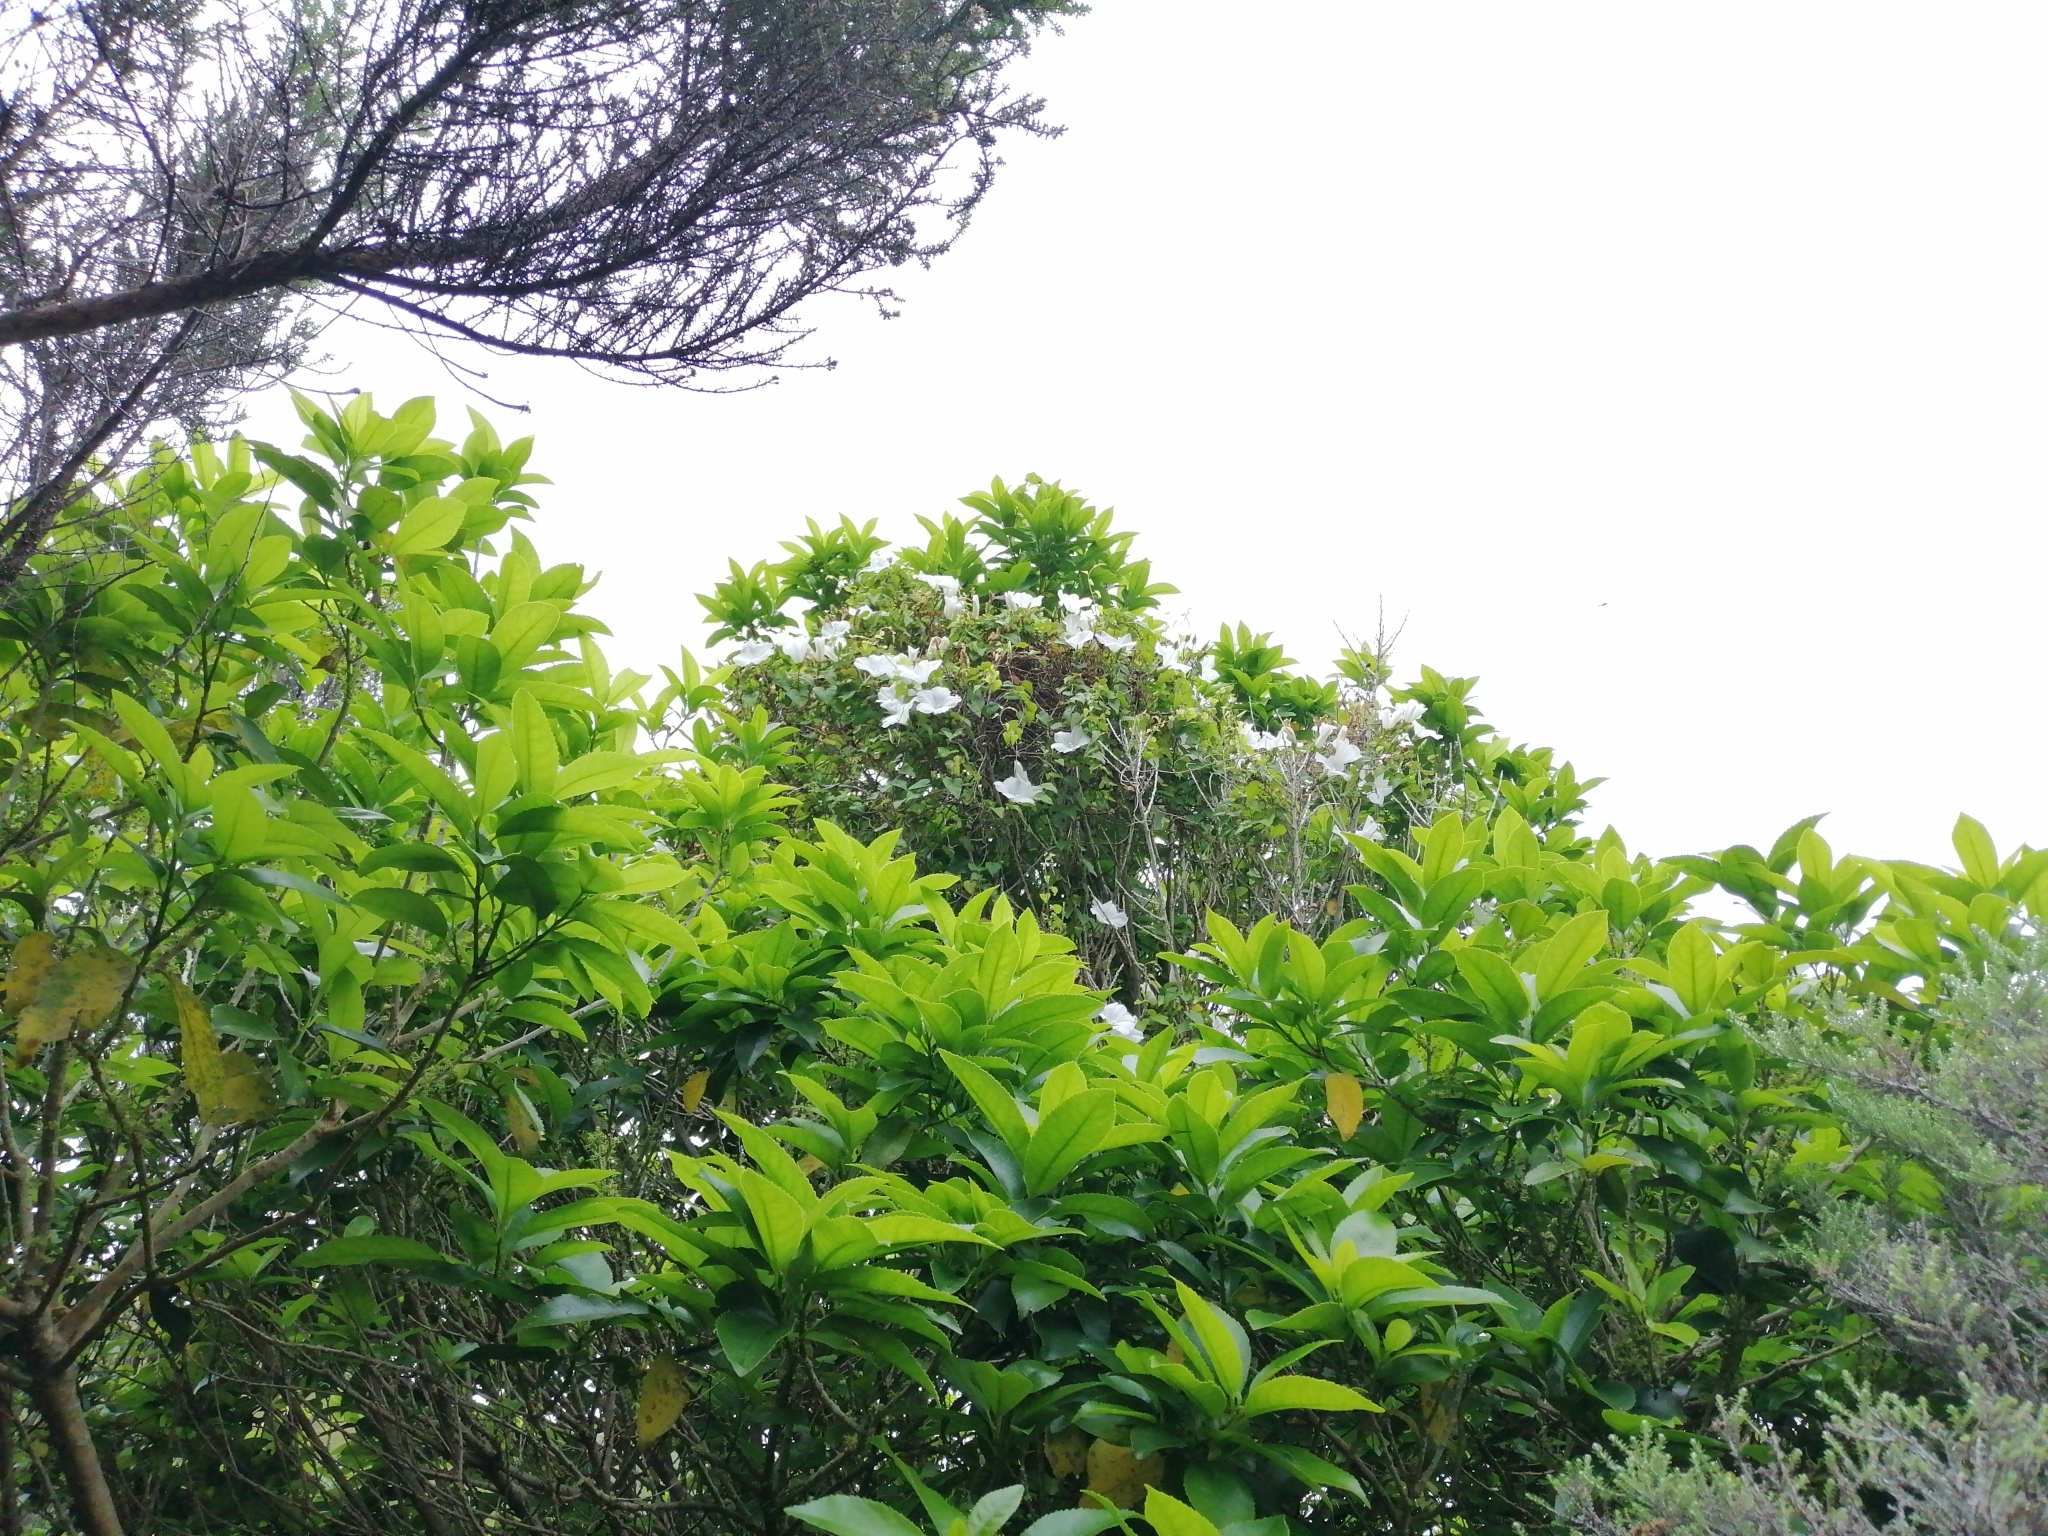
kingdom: Plantae
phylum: Tracheophyta
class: Magnoliopsida
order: Solanales
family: Convolvulaceae
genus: Calystegia
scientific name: Calystegia tuguriorum
